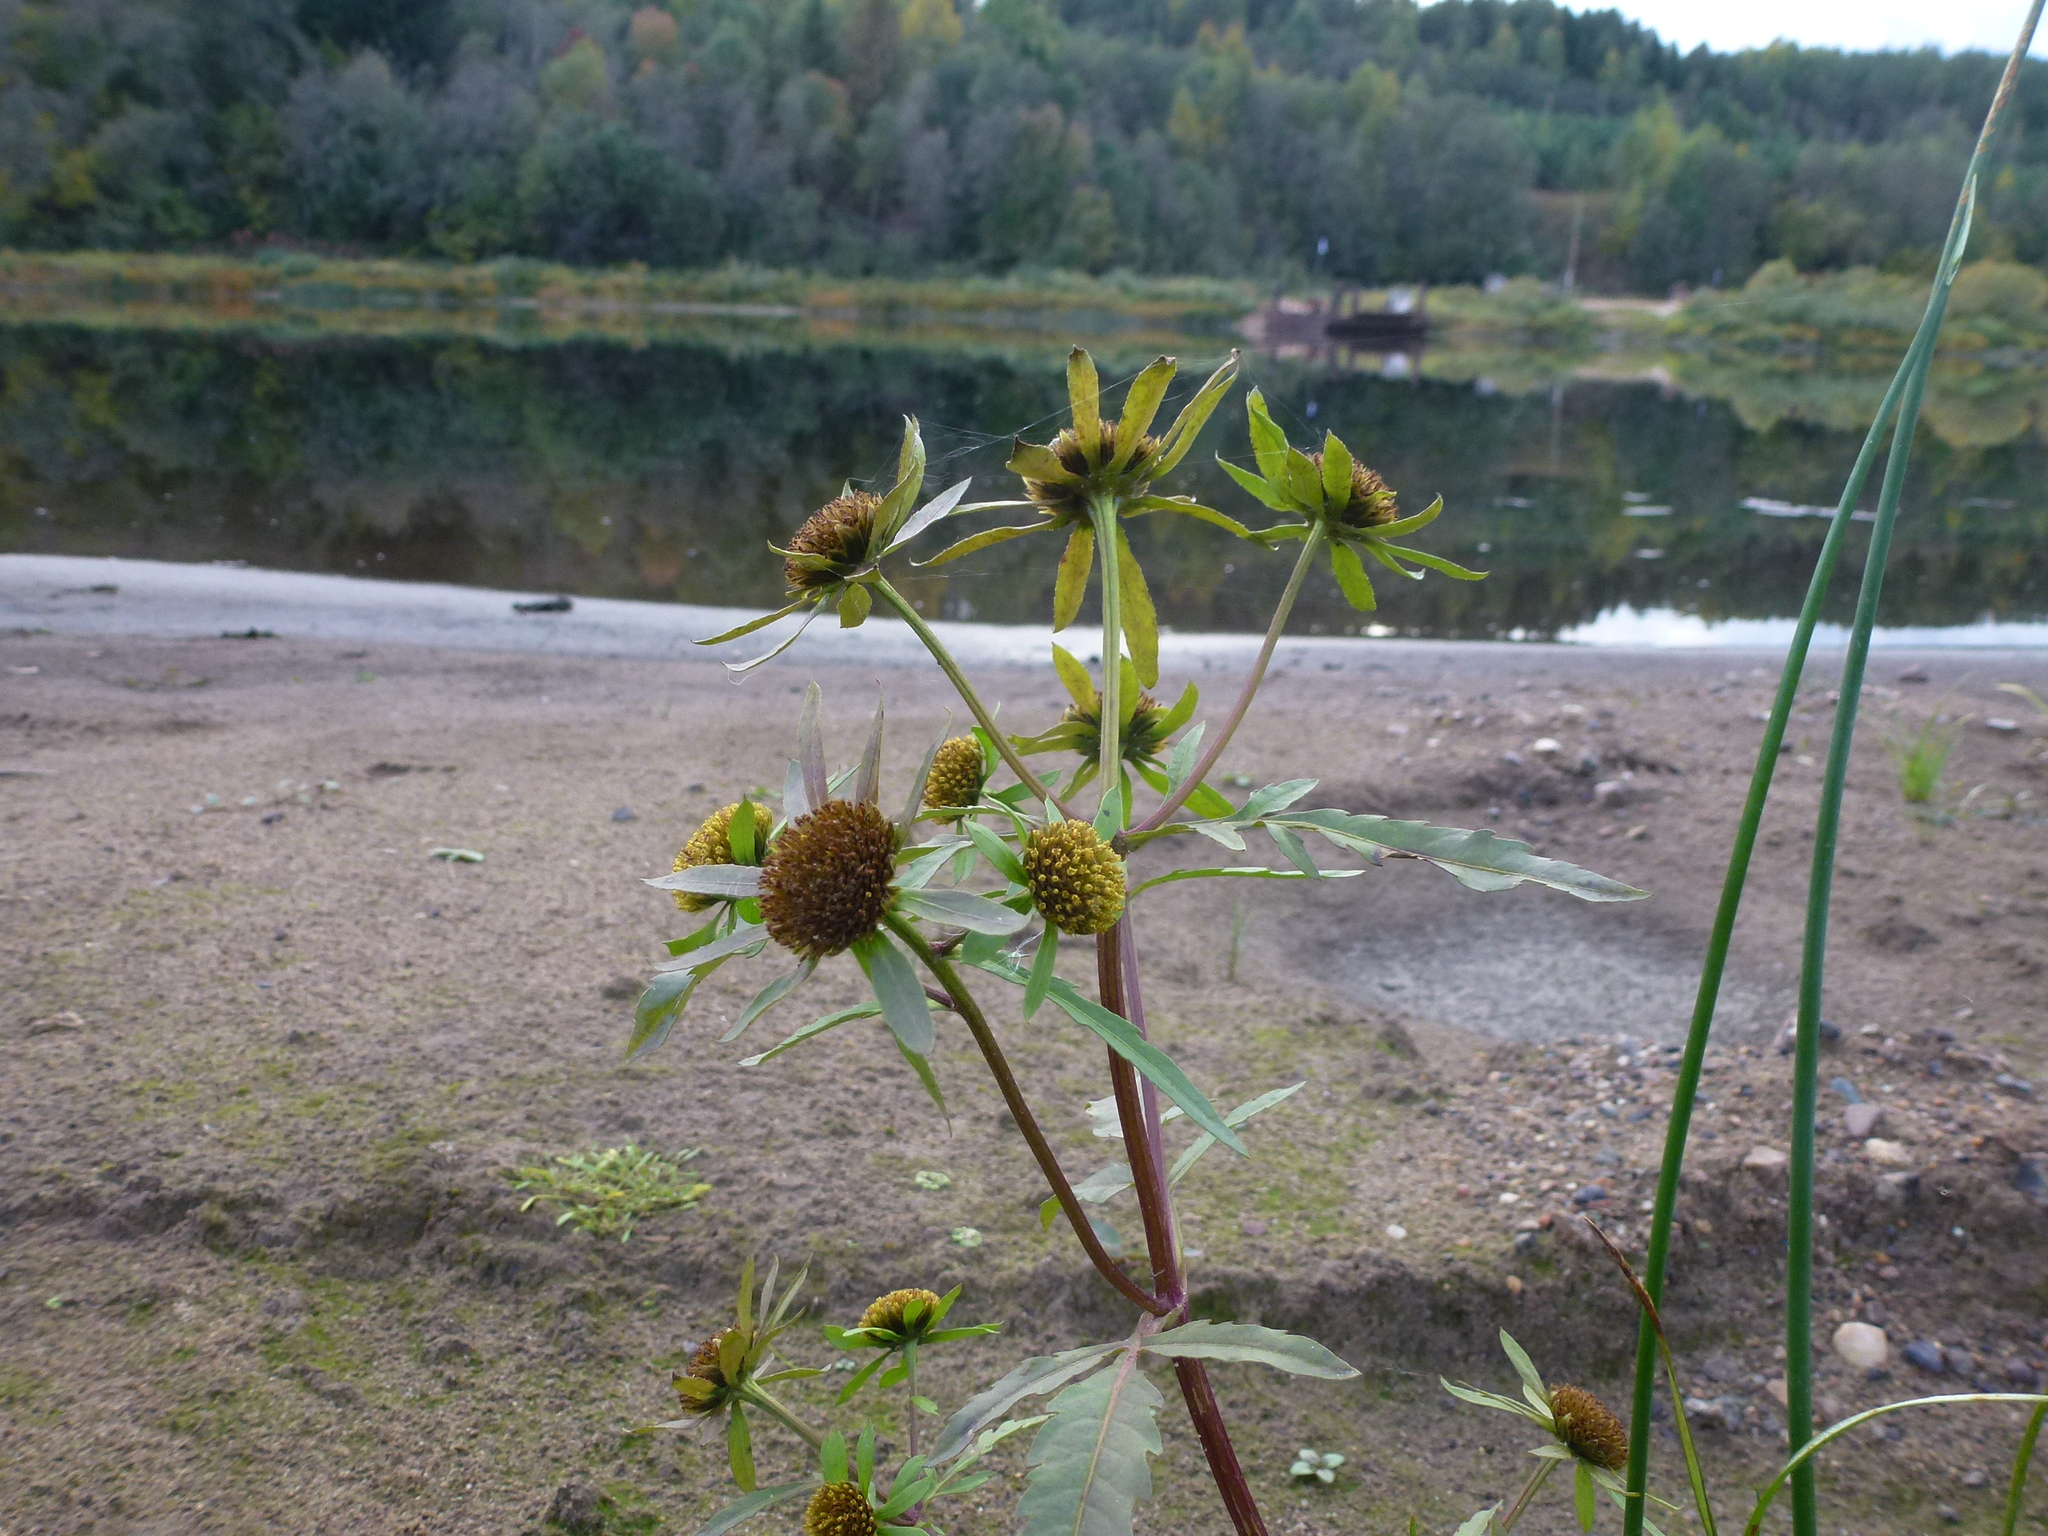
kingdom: Plantae
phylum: Tracheophyta
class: Magnoliopsida
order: Asterales
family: Asteraceae
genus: Bidens
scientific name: Bidens radiata
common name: Radiating bur-marigold
